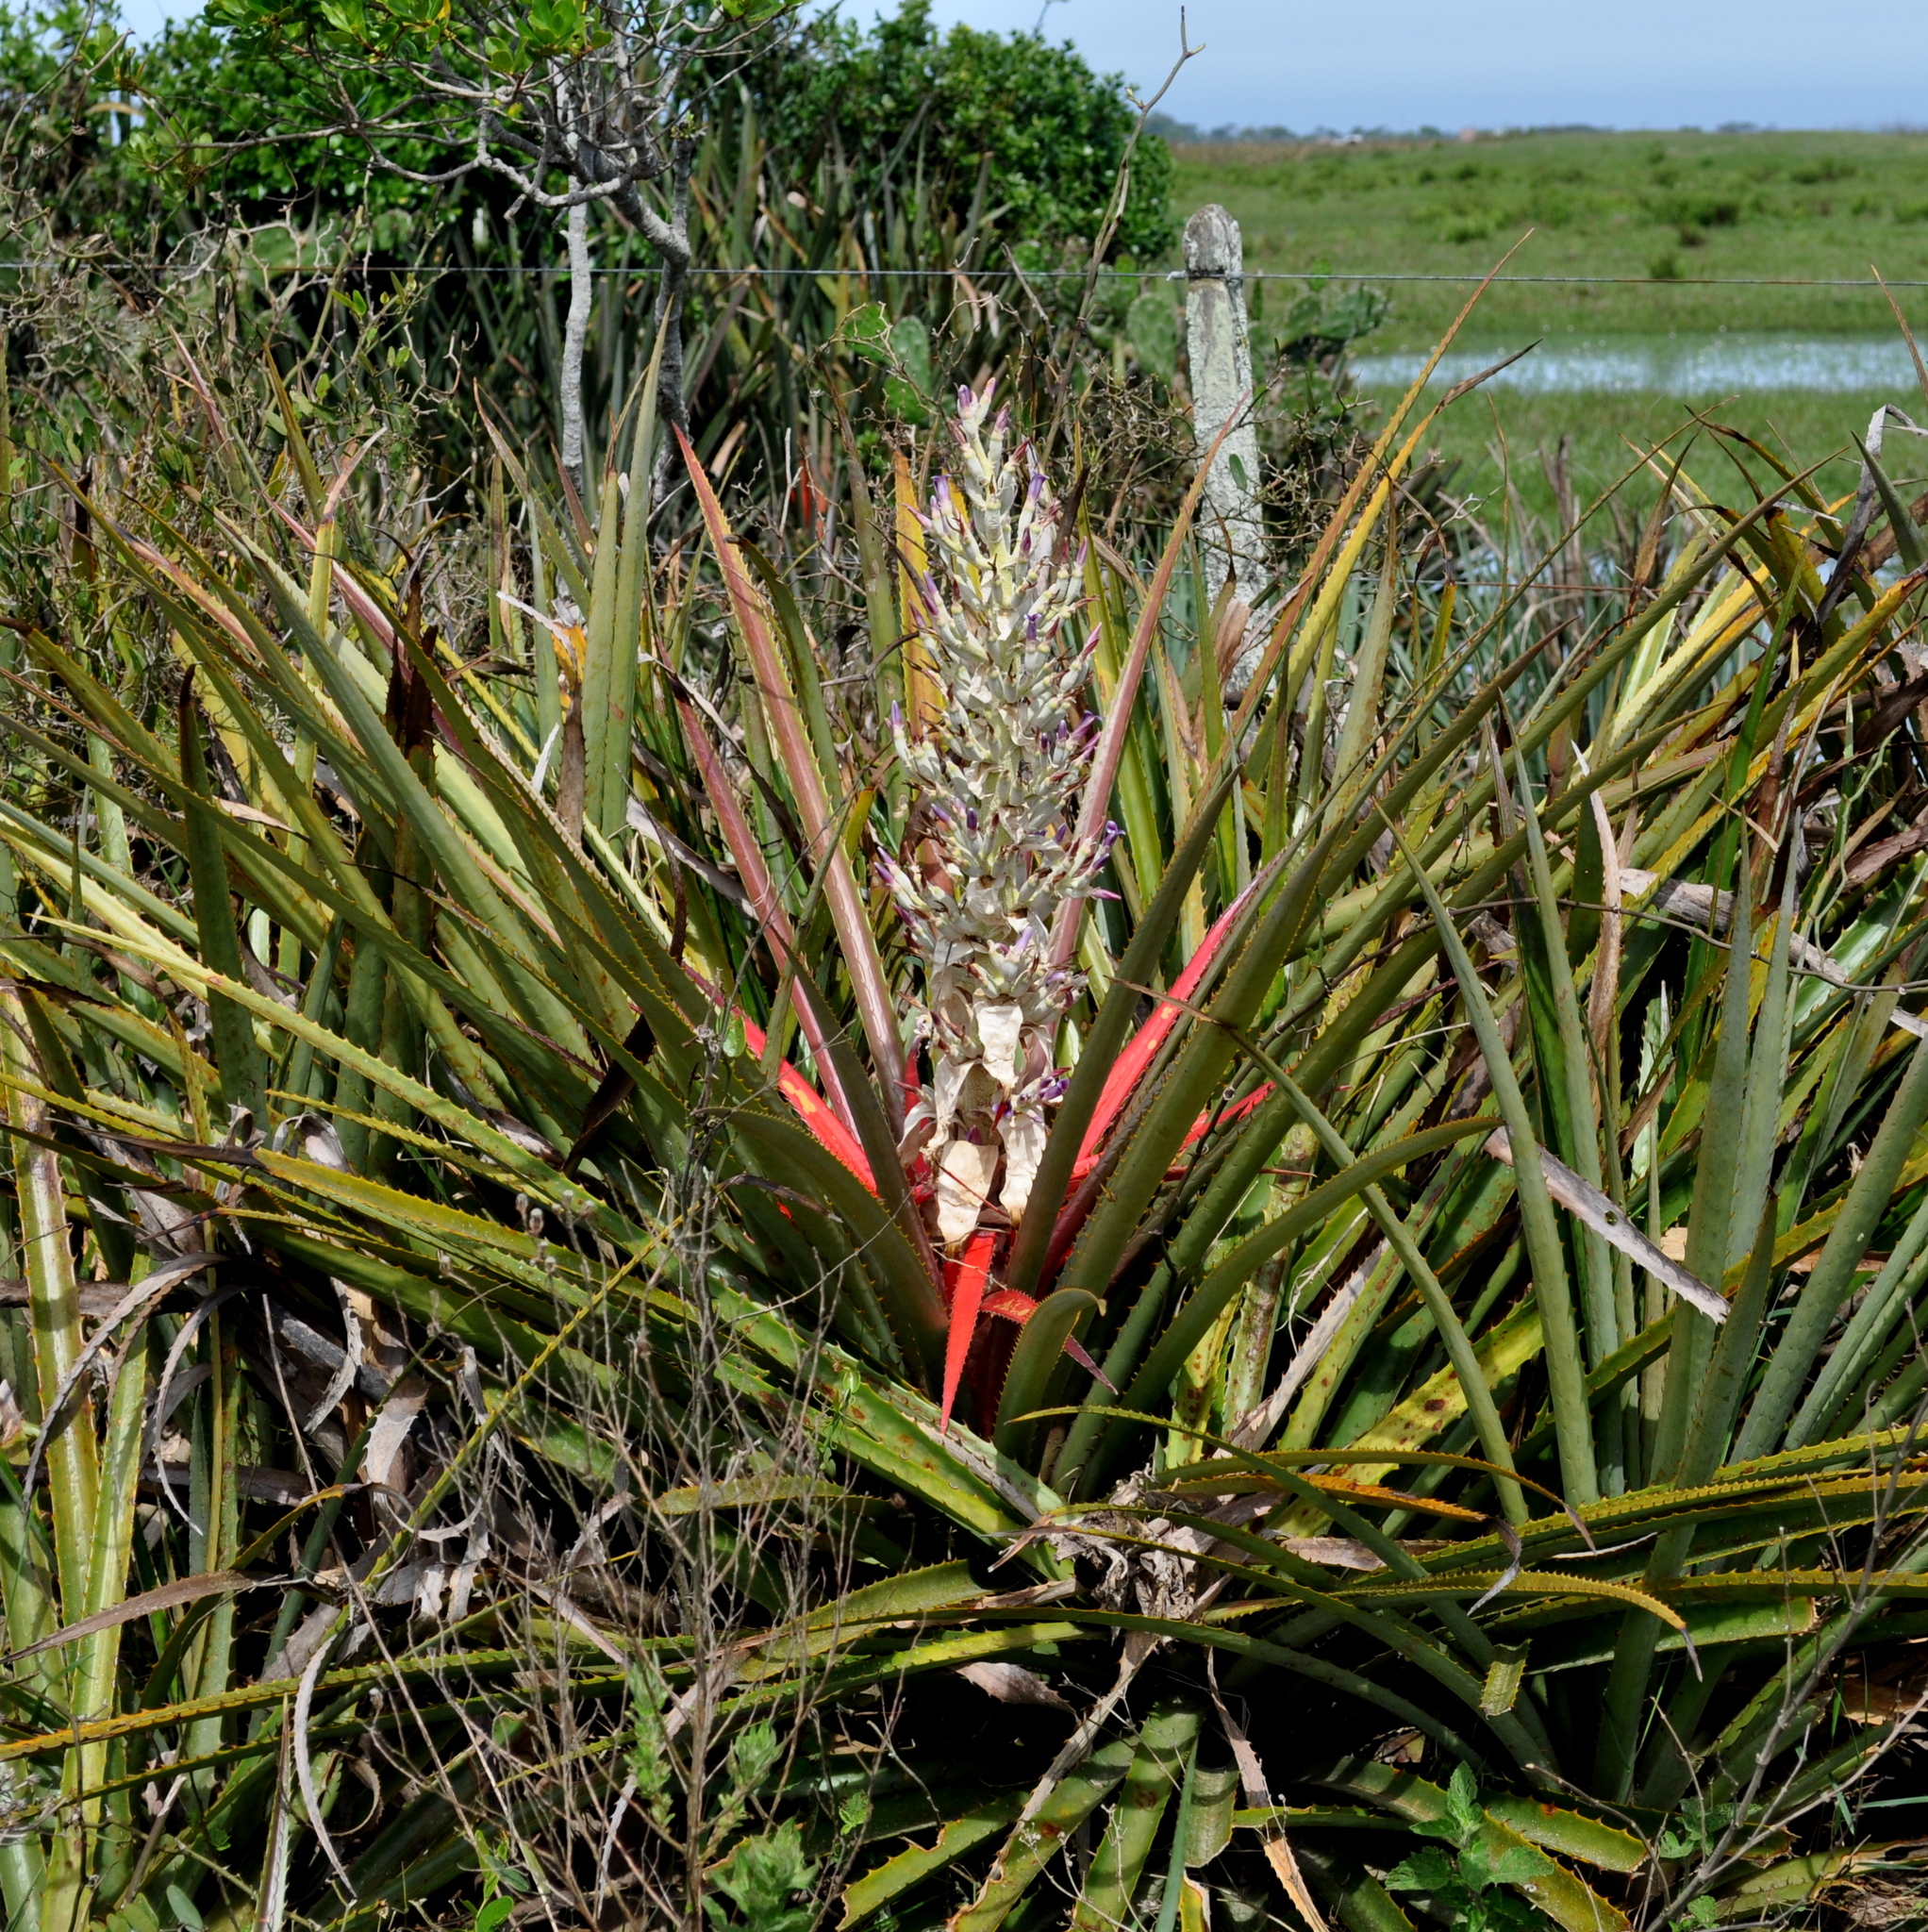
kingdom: Plantae
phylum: Tracheophyta
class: Liliopsida
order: Poales
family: Bromeliaceae
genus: Bromelia
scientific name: Bromelia antiacantha
